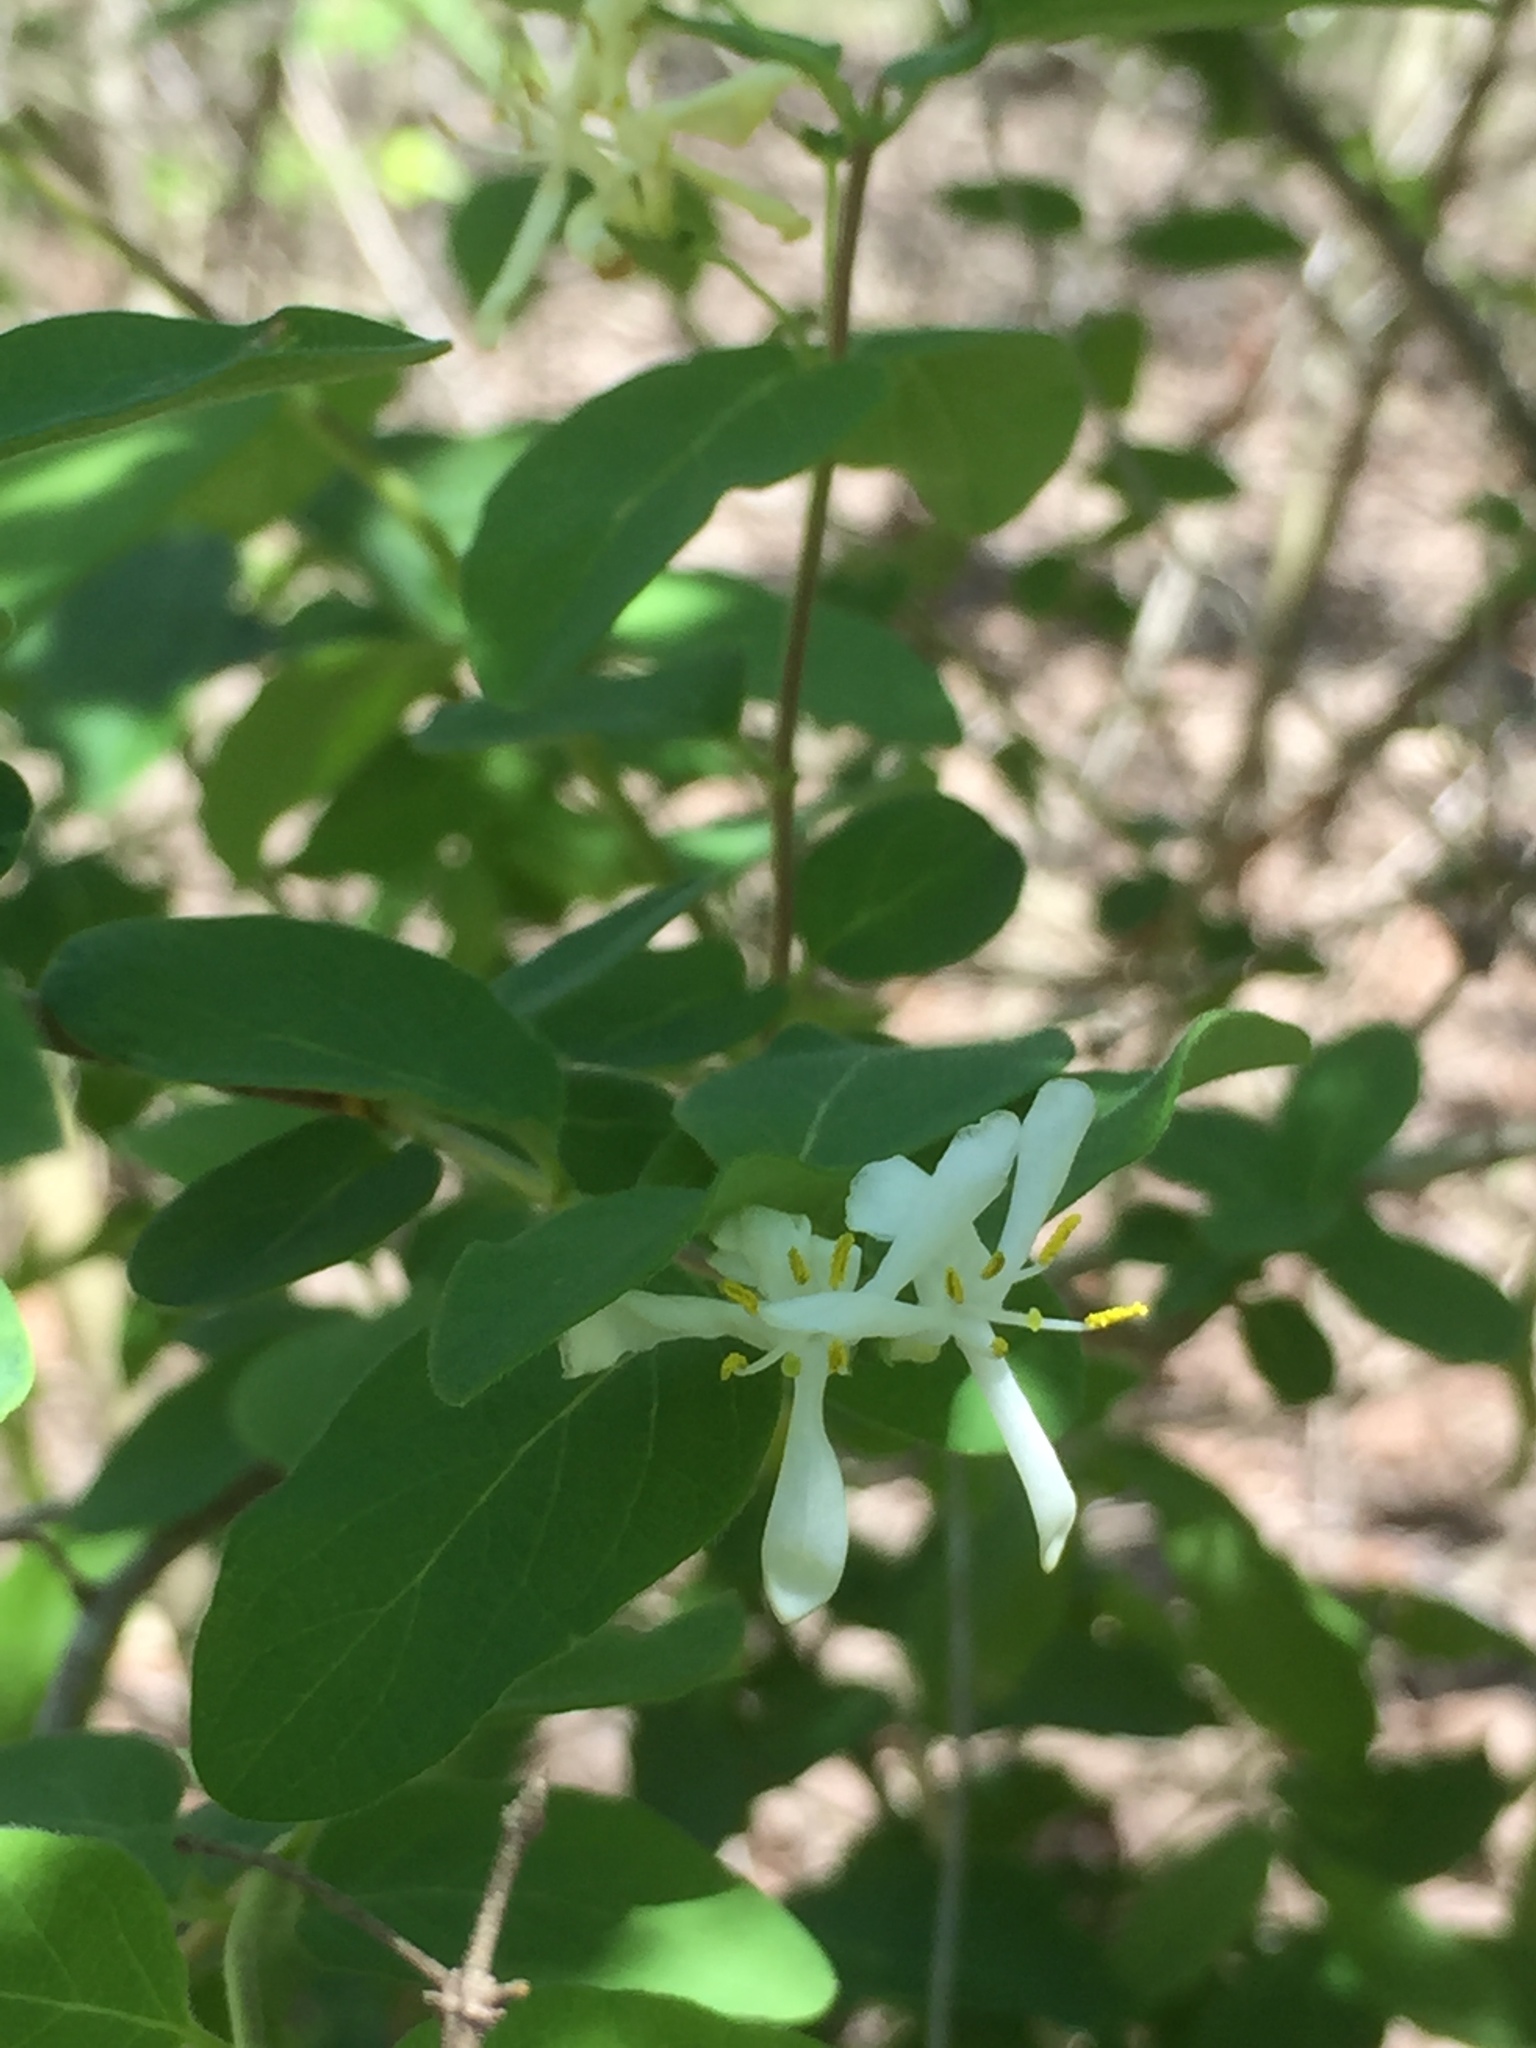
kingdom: Plantae
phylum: Tracheophyta
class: Magnoliopsida
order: Dipsacales
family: Caprifoliaceae
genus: Lonicera
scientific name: Lonicera morrowii
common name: Morrow's honeysuckle
